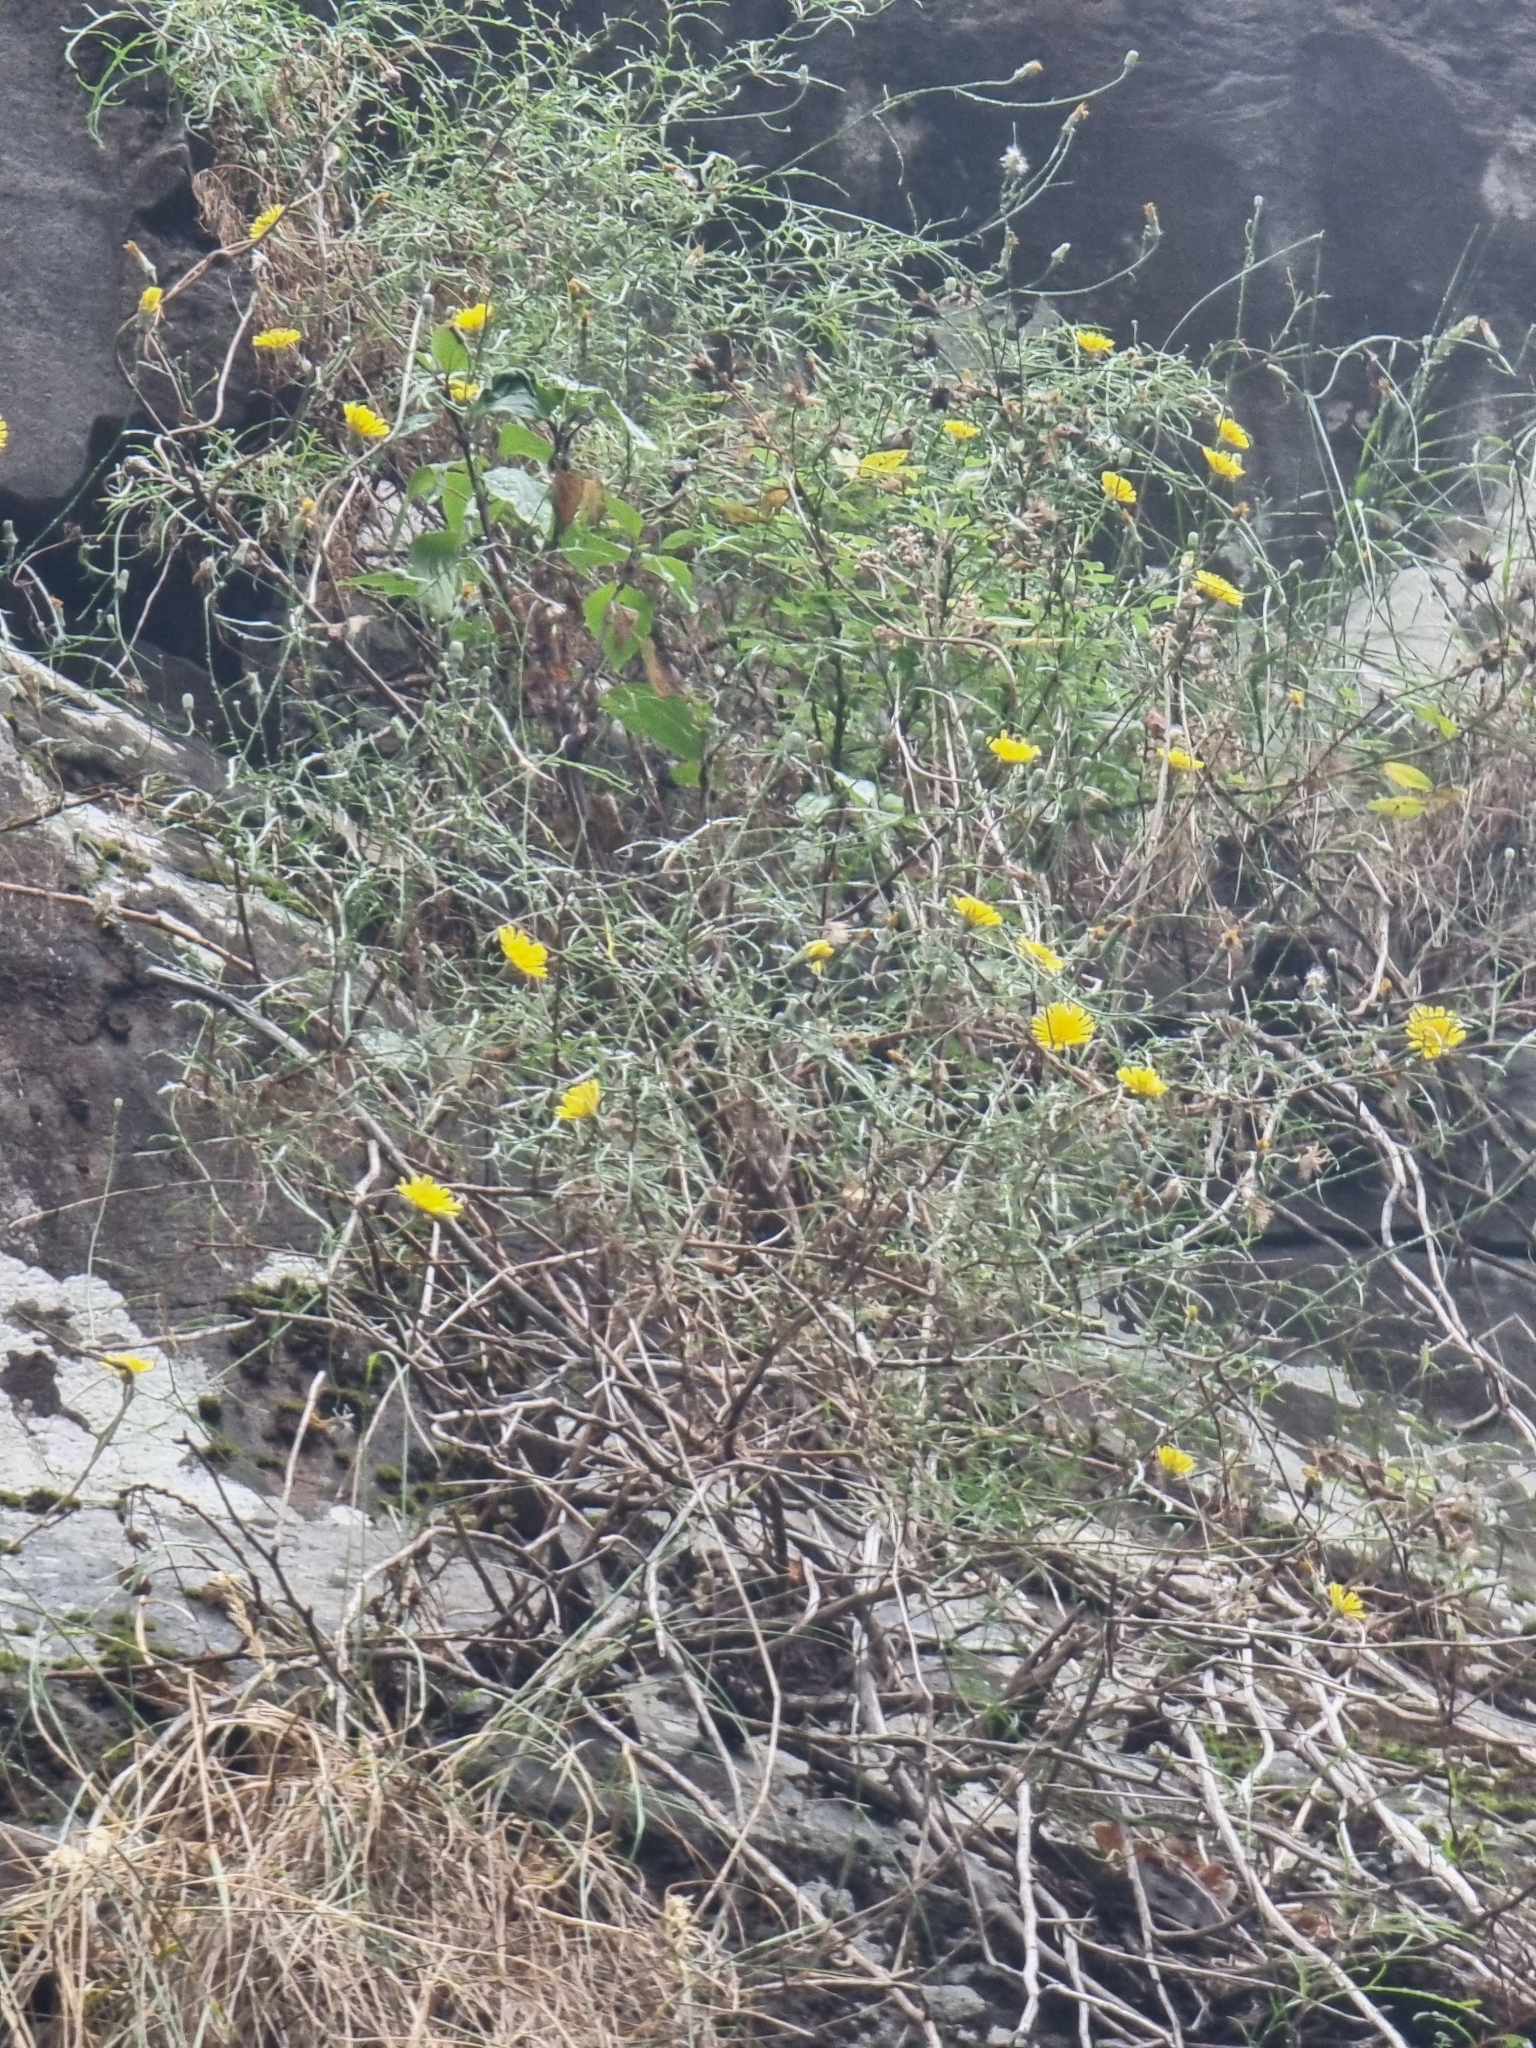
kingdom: Plantae
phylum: Tracheophyta
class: Magnoliopsida
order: Asterales
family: Asteraceae
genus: Tolpis
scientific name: Tolpis succulenta
